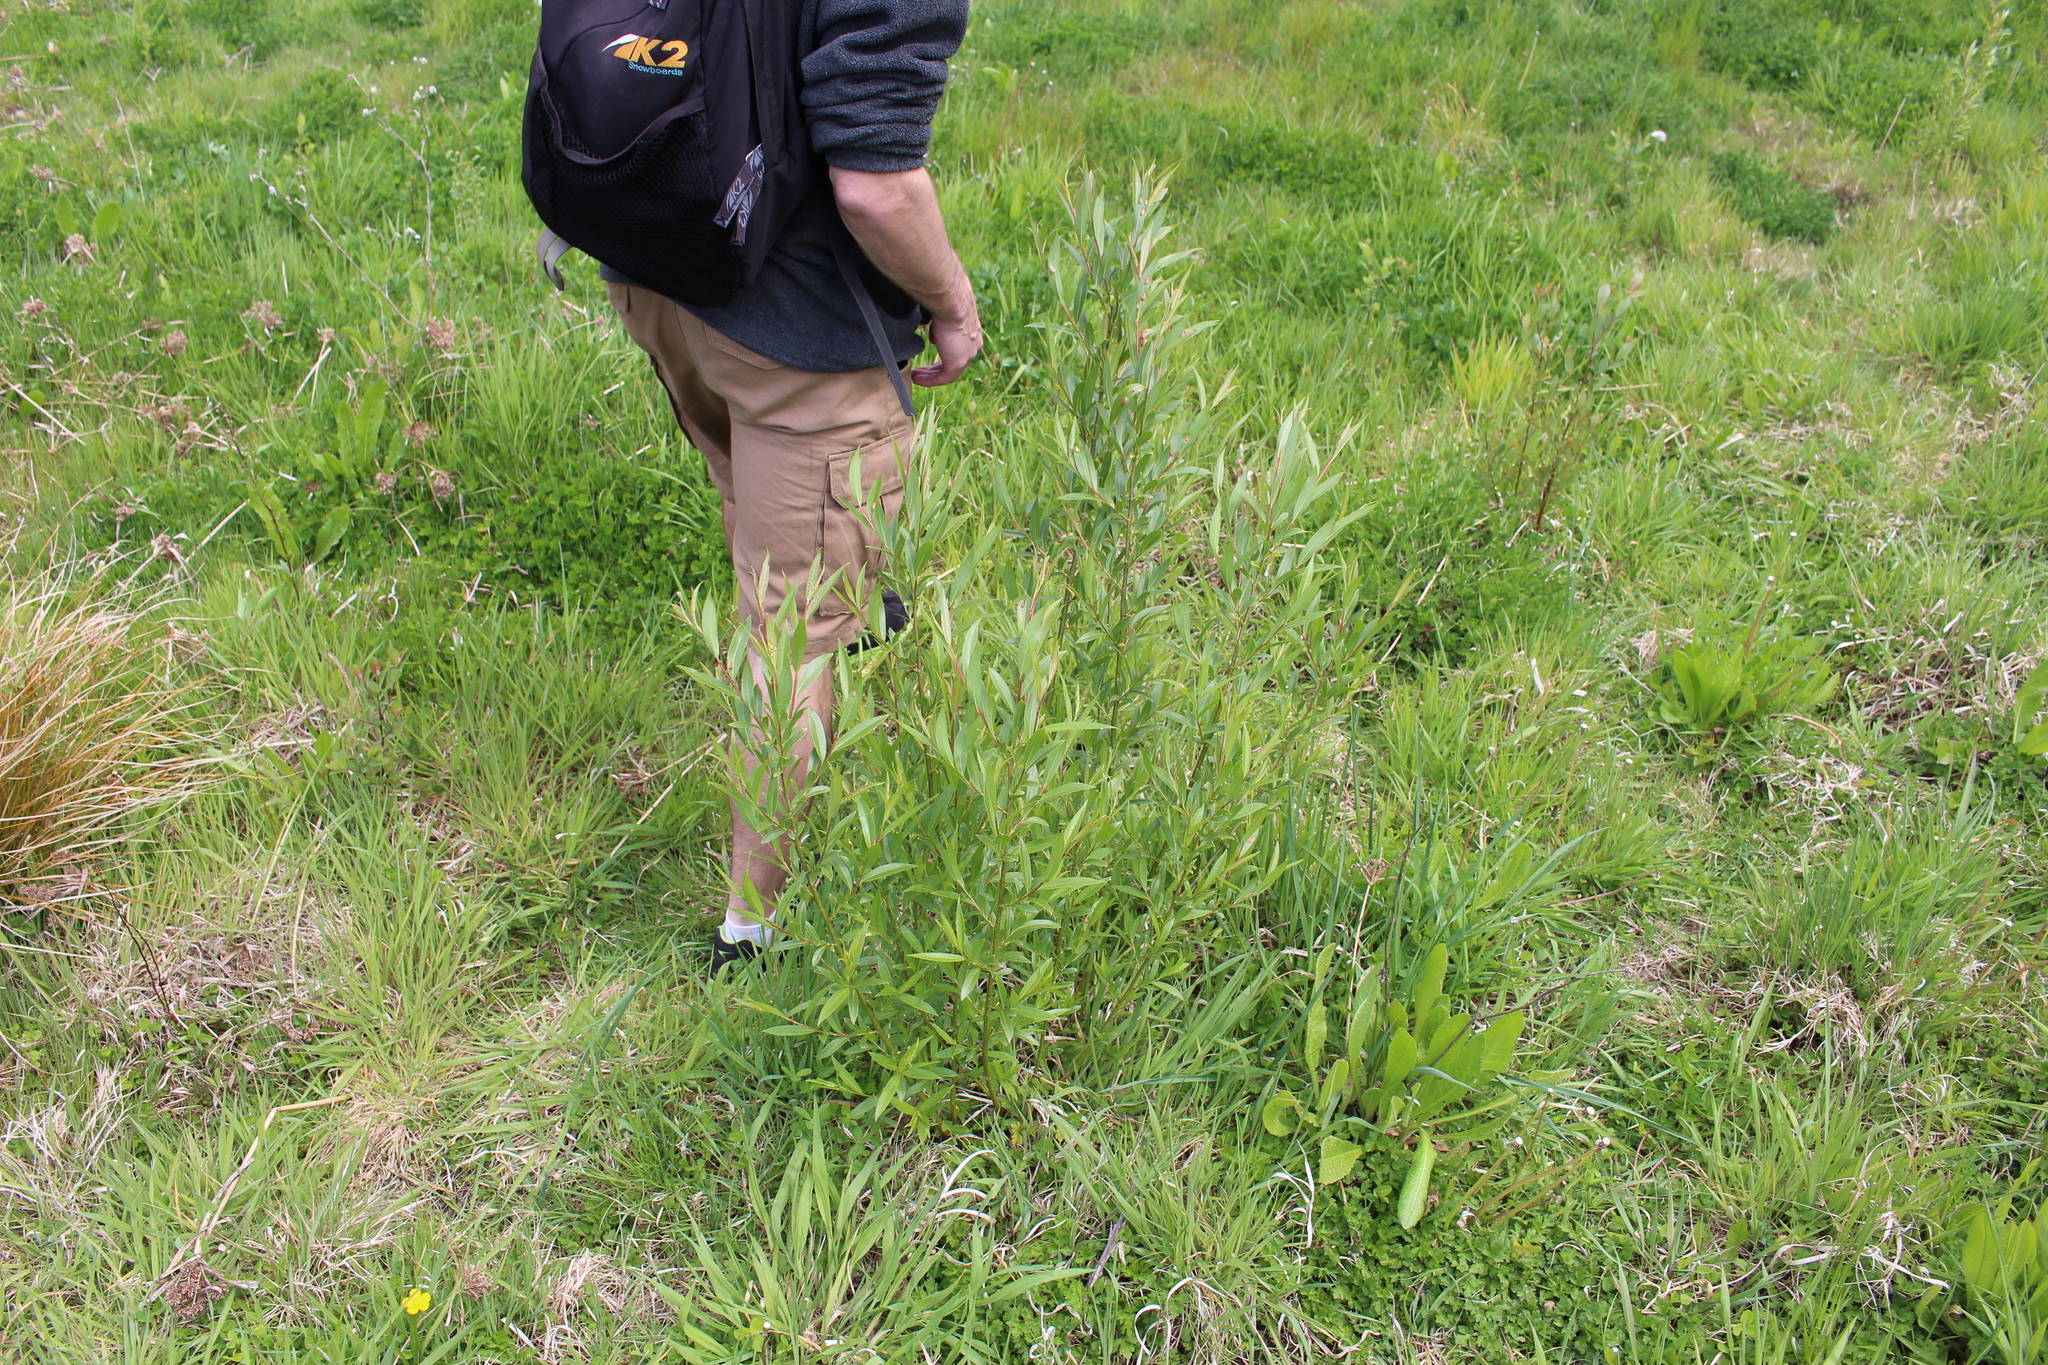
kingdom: Plantae
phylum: Tracheophyta
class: Magnoliopsida
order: Malpighiales
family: Salicaceae
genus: Salix
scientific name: Salix fragilis
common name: Crack willow
